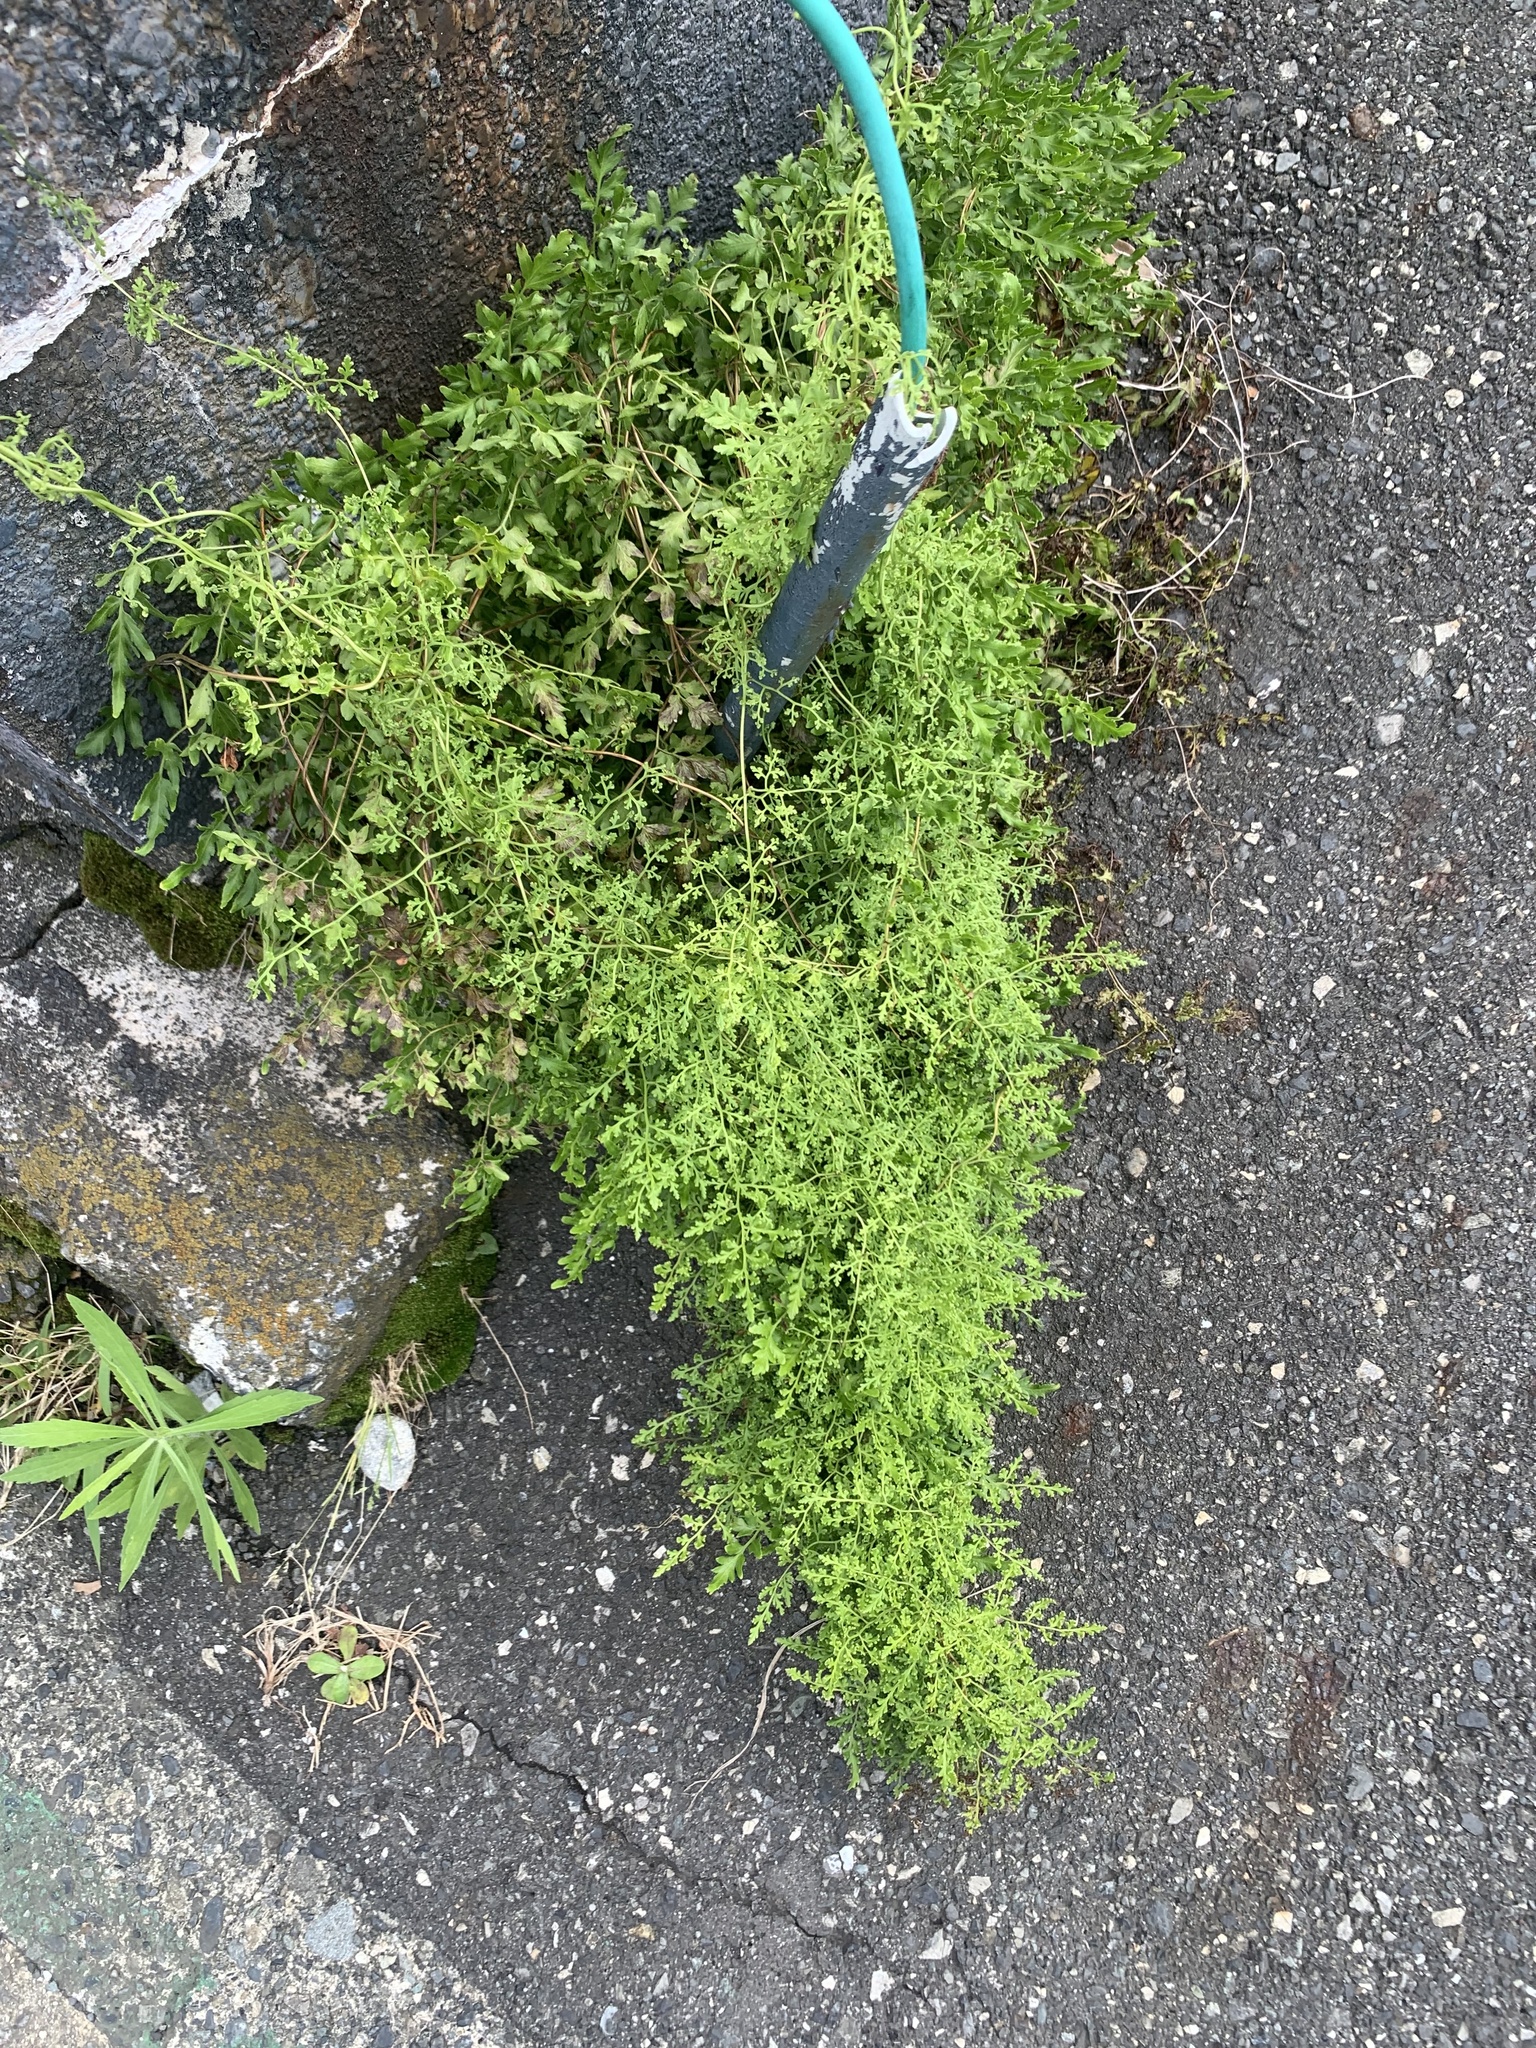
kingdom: Plantae
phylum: Tracheophyta
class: Polypodiopsida
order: Schizaeales
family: Lygodiaceae
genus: Lygodium
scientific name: Lygodium japonicum
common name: Japanese climbing fern
